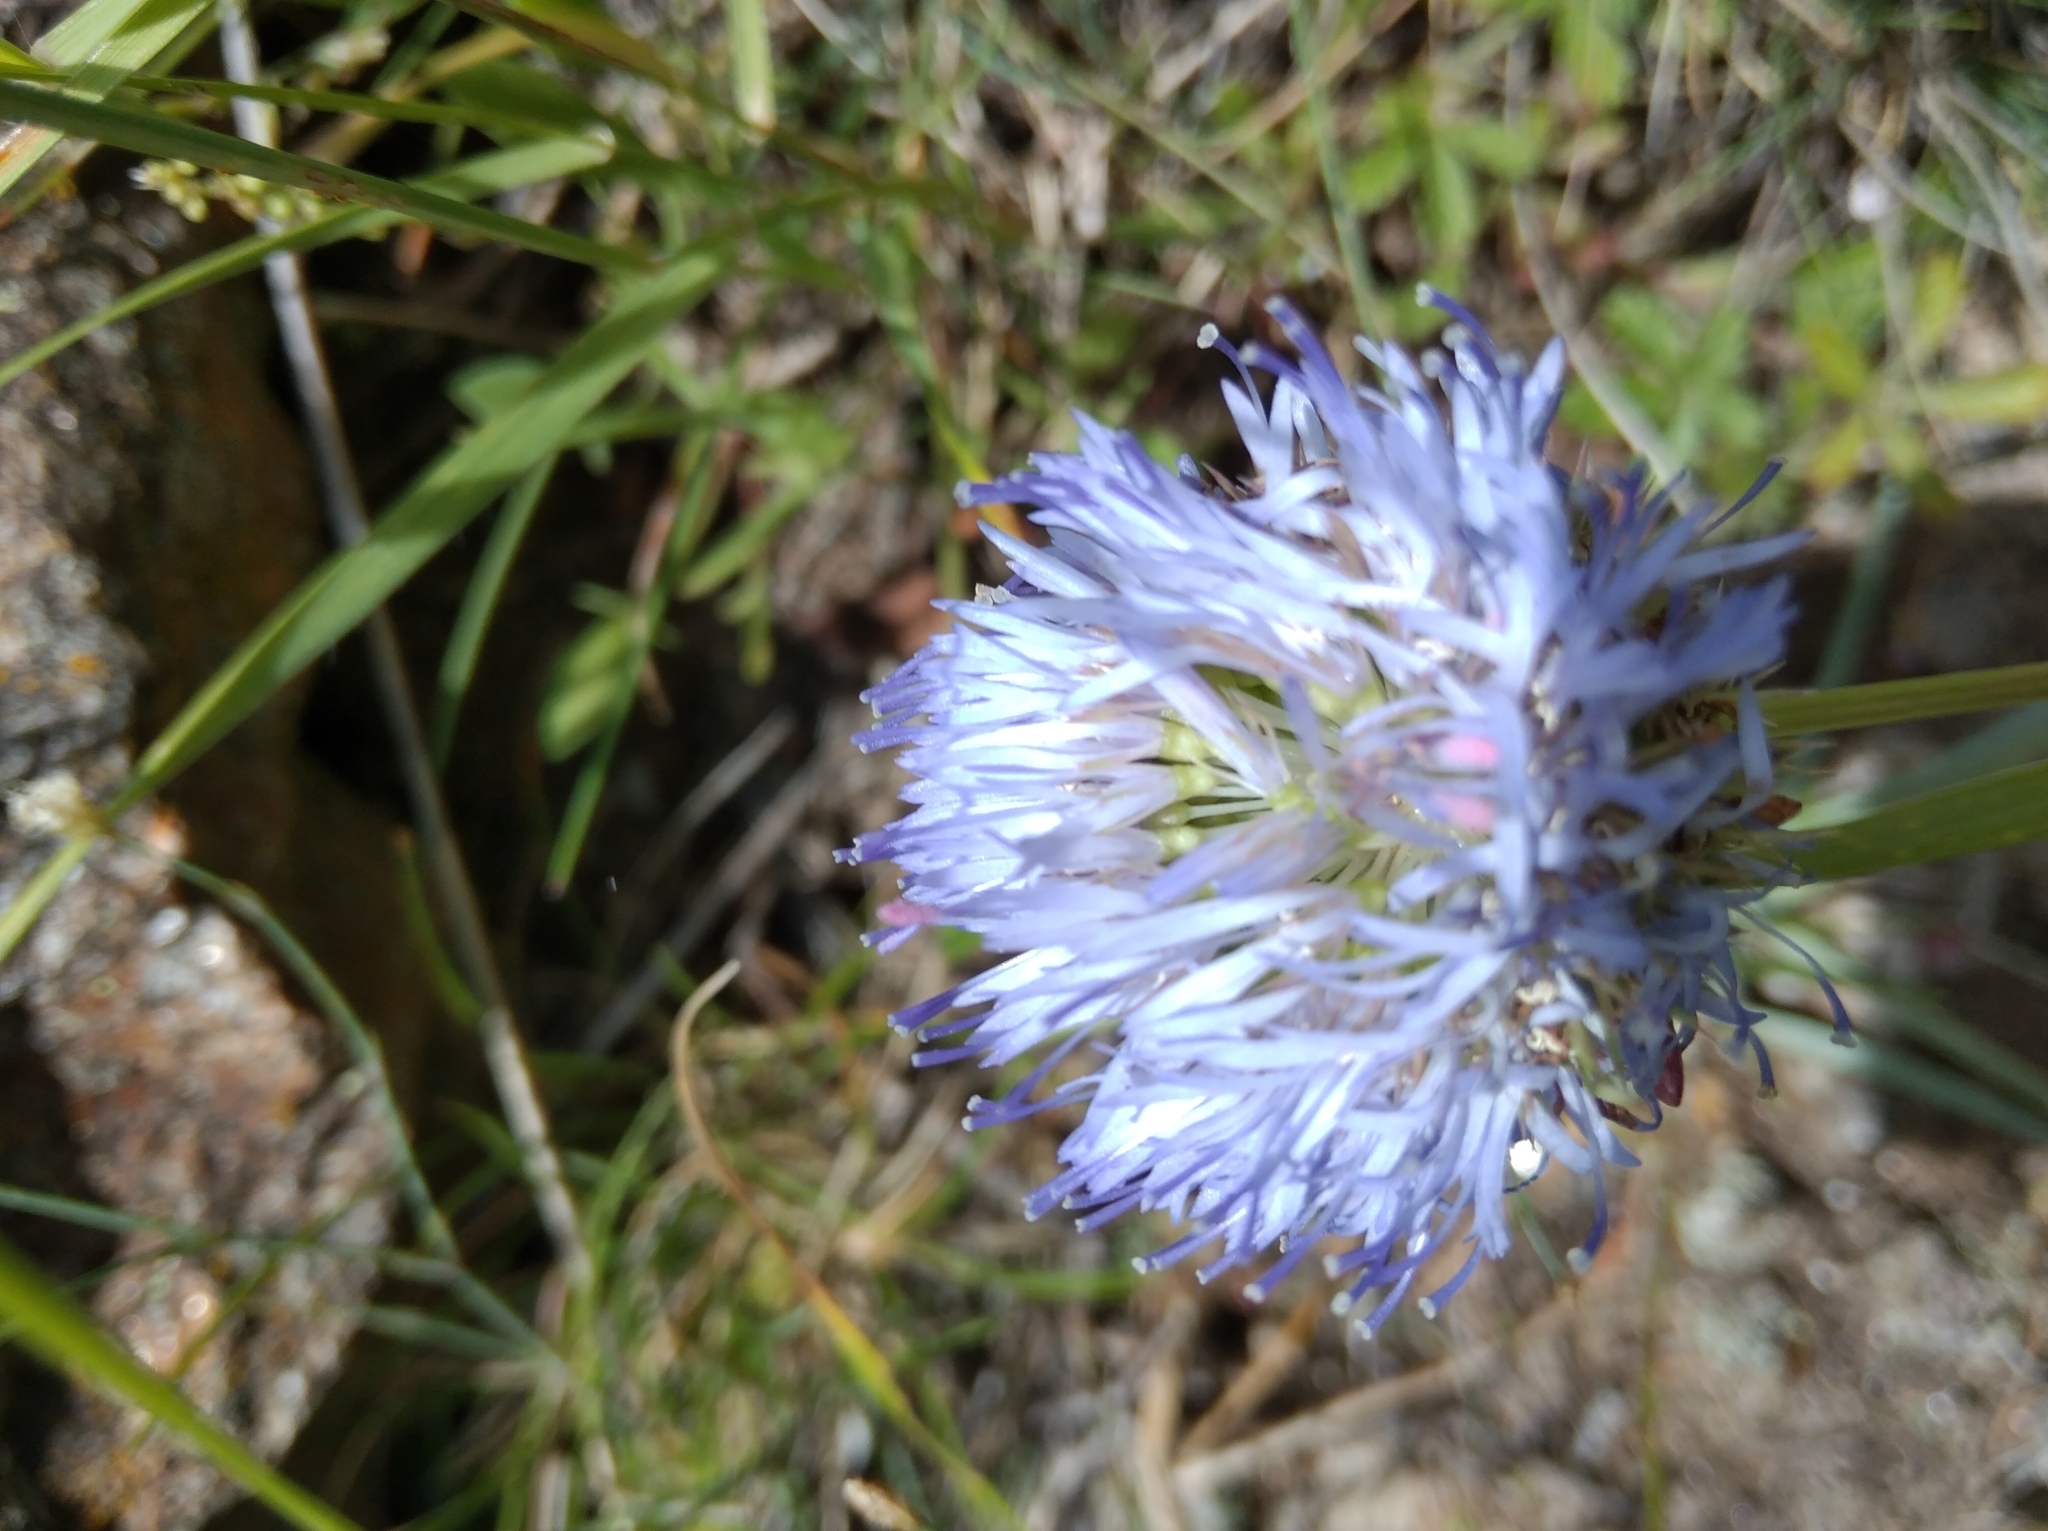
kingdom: Plantae
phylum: Tracheophyta
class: Magnoliopsida
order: Asterales
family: Campanulaceae
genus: Jasione
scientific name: Jasione montana
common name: Sheep's-bit
